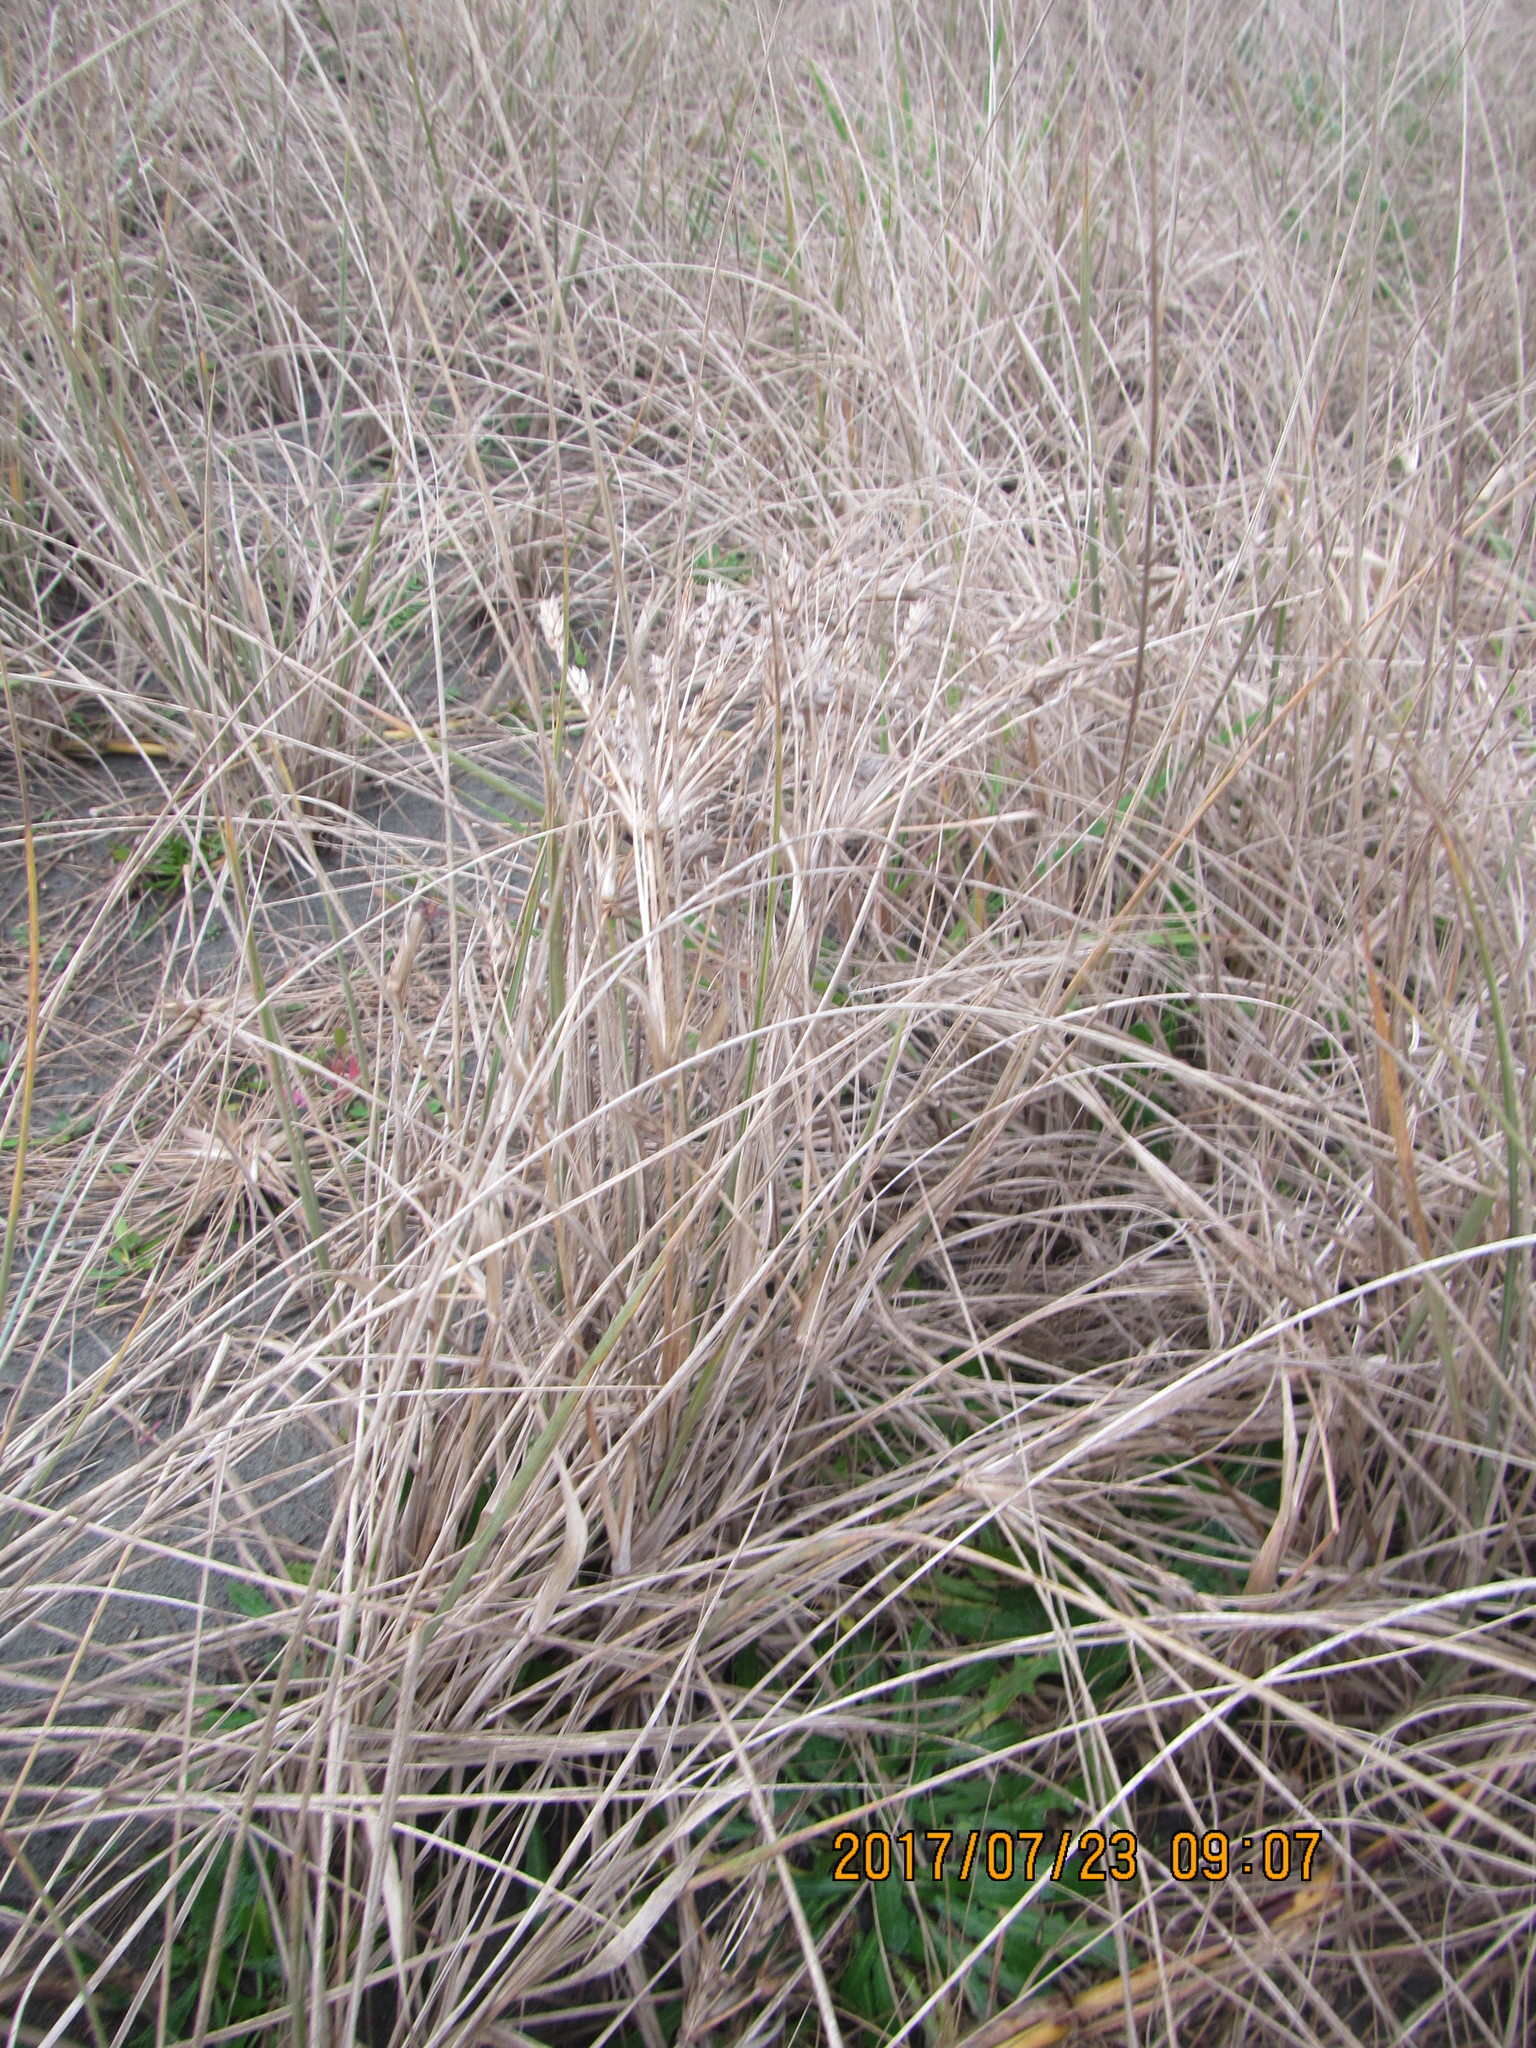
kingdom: Plantae
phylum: Tracheophyta
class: Liliopsida
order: Poales
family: Poaceae
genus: Spinifex
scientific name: Spinifex sericeus
